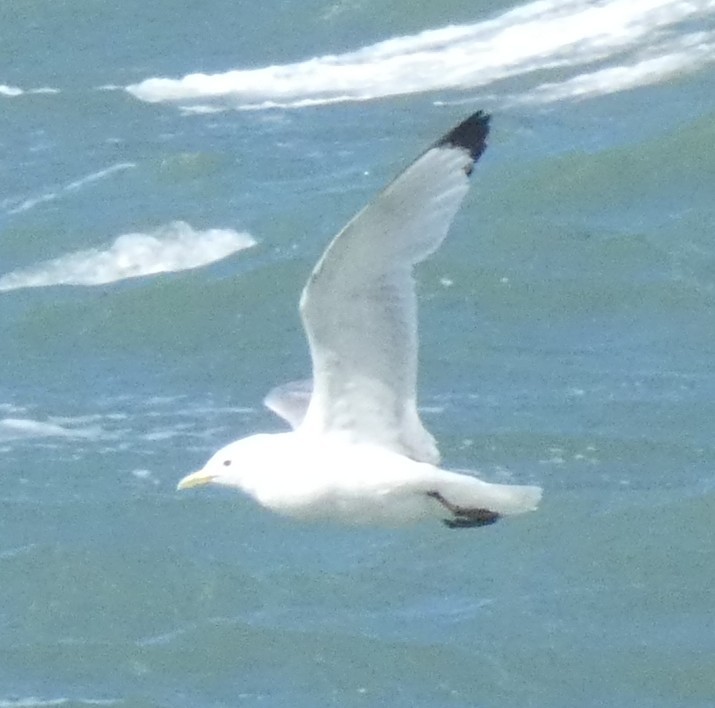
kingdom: Animalia
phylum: Chordata
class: Aves
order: Charadriiformes
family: Laridae
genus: Rissa
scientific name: Rissa tridactyla
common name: Black-legged kittiwake
